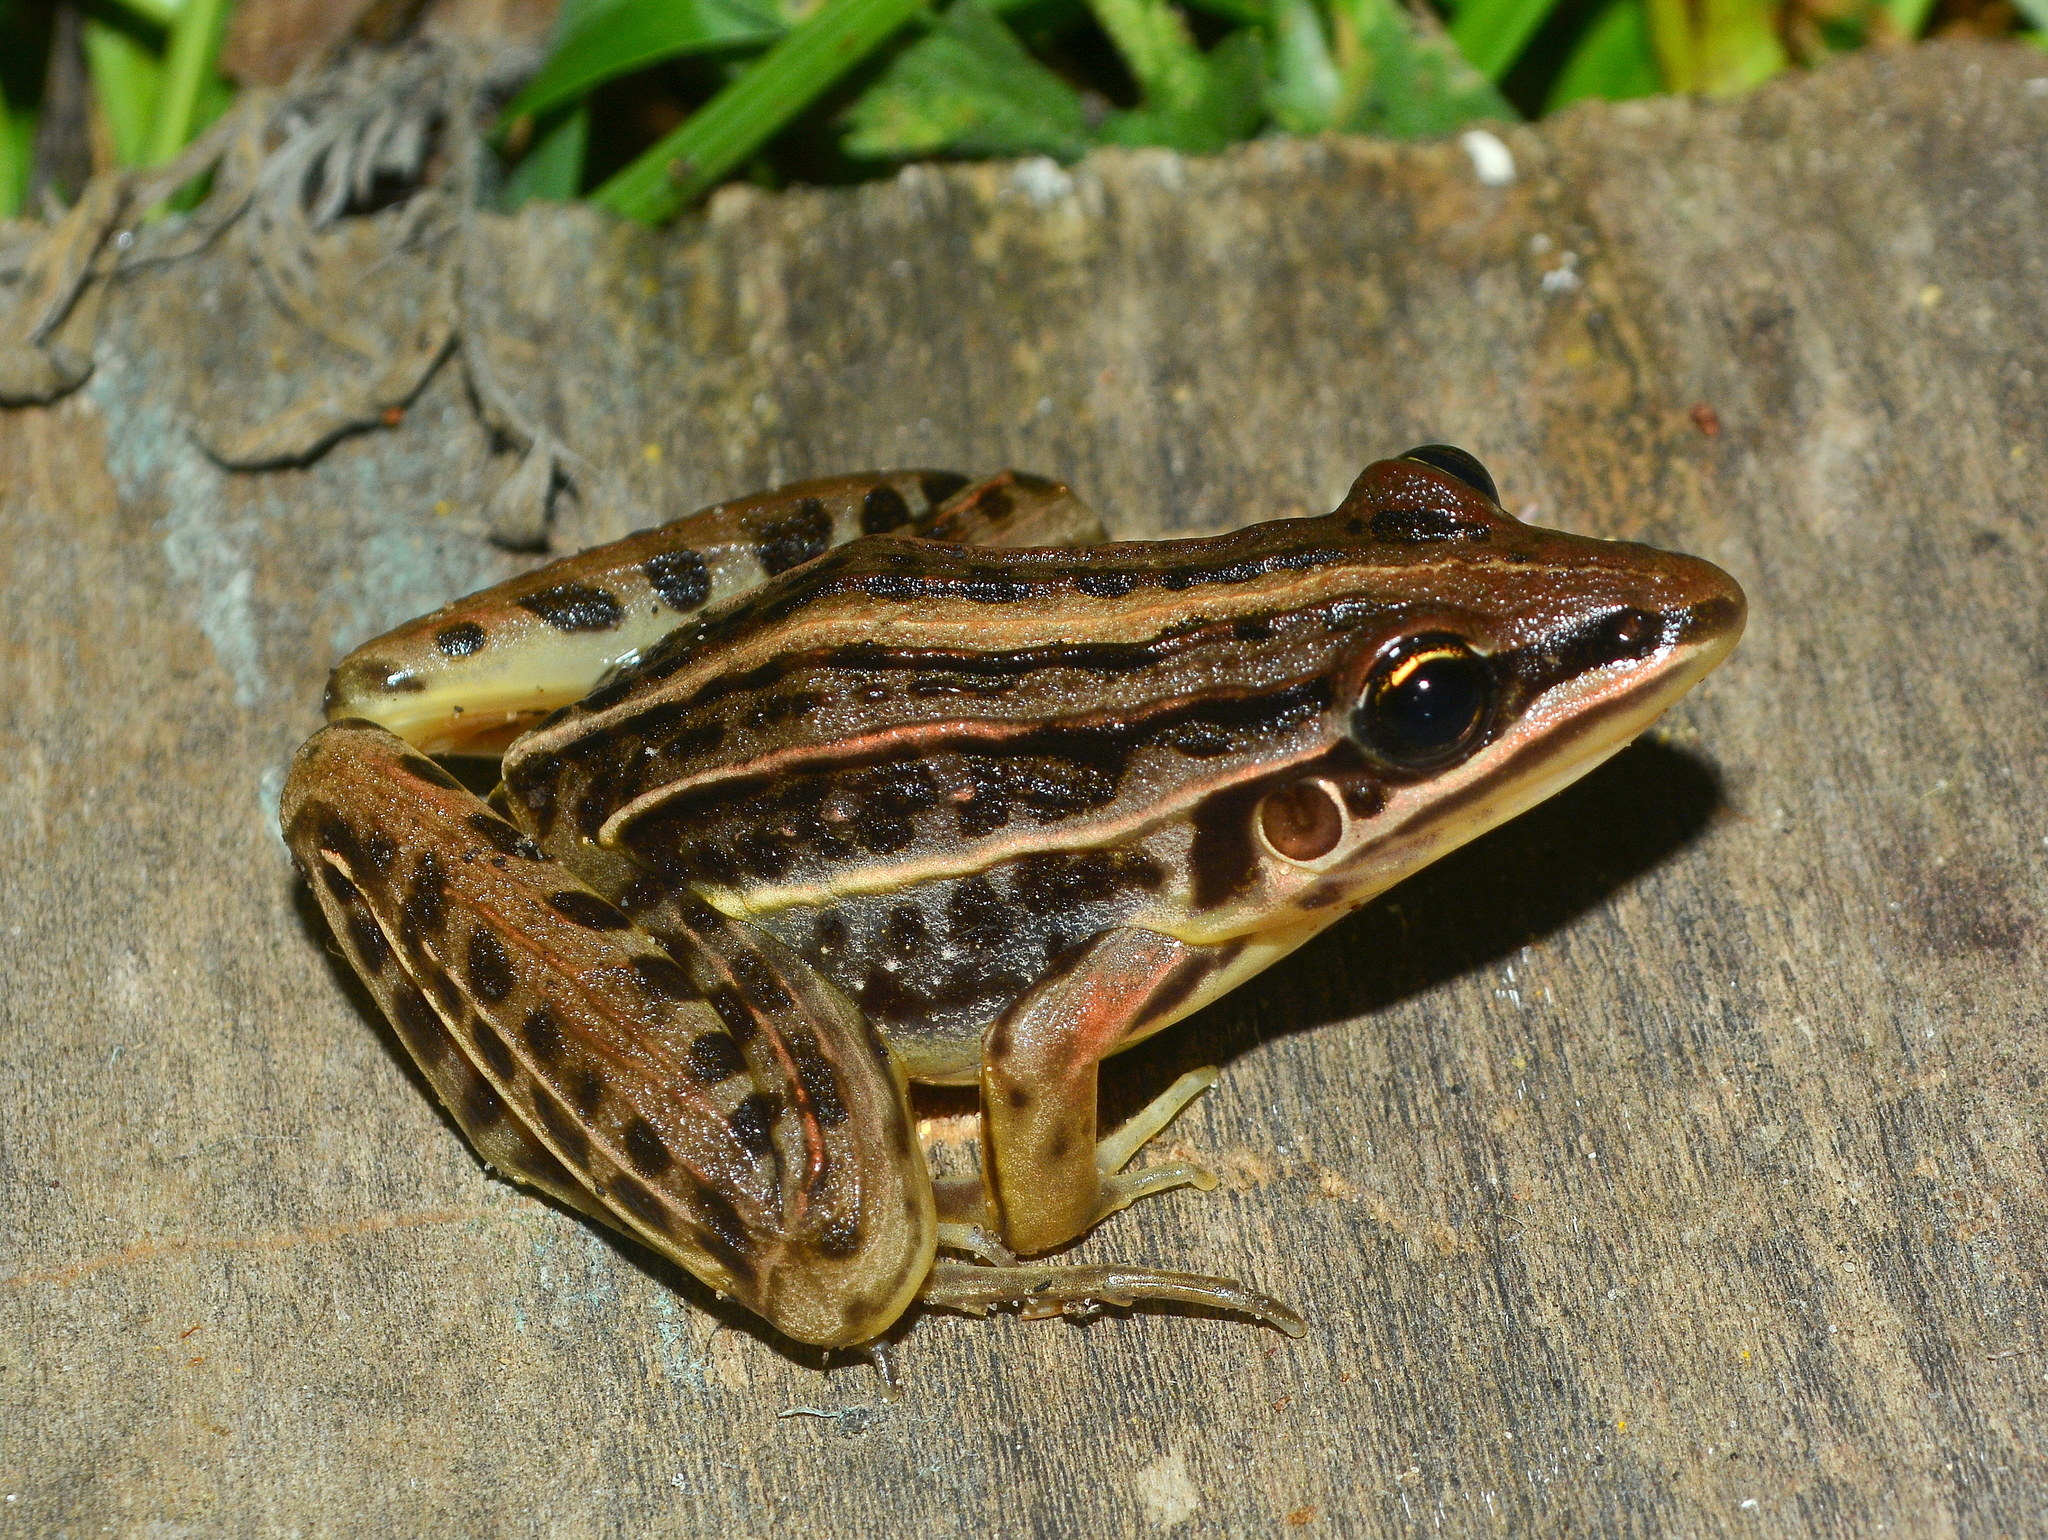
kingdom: Animalia
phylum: Chordata
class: Amphibia
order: Anura
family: Leptodactylidae
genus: Leptodactylus
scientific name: Leptodactylus gracilis
